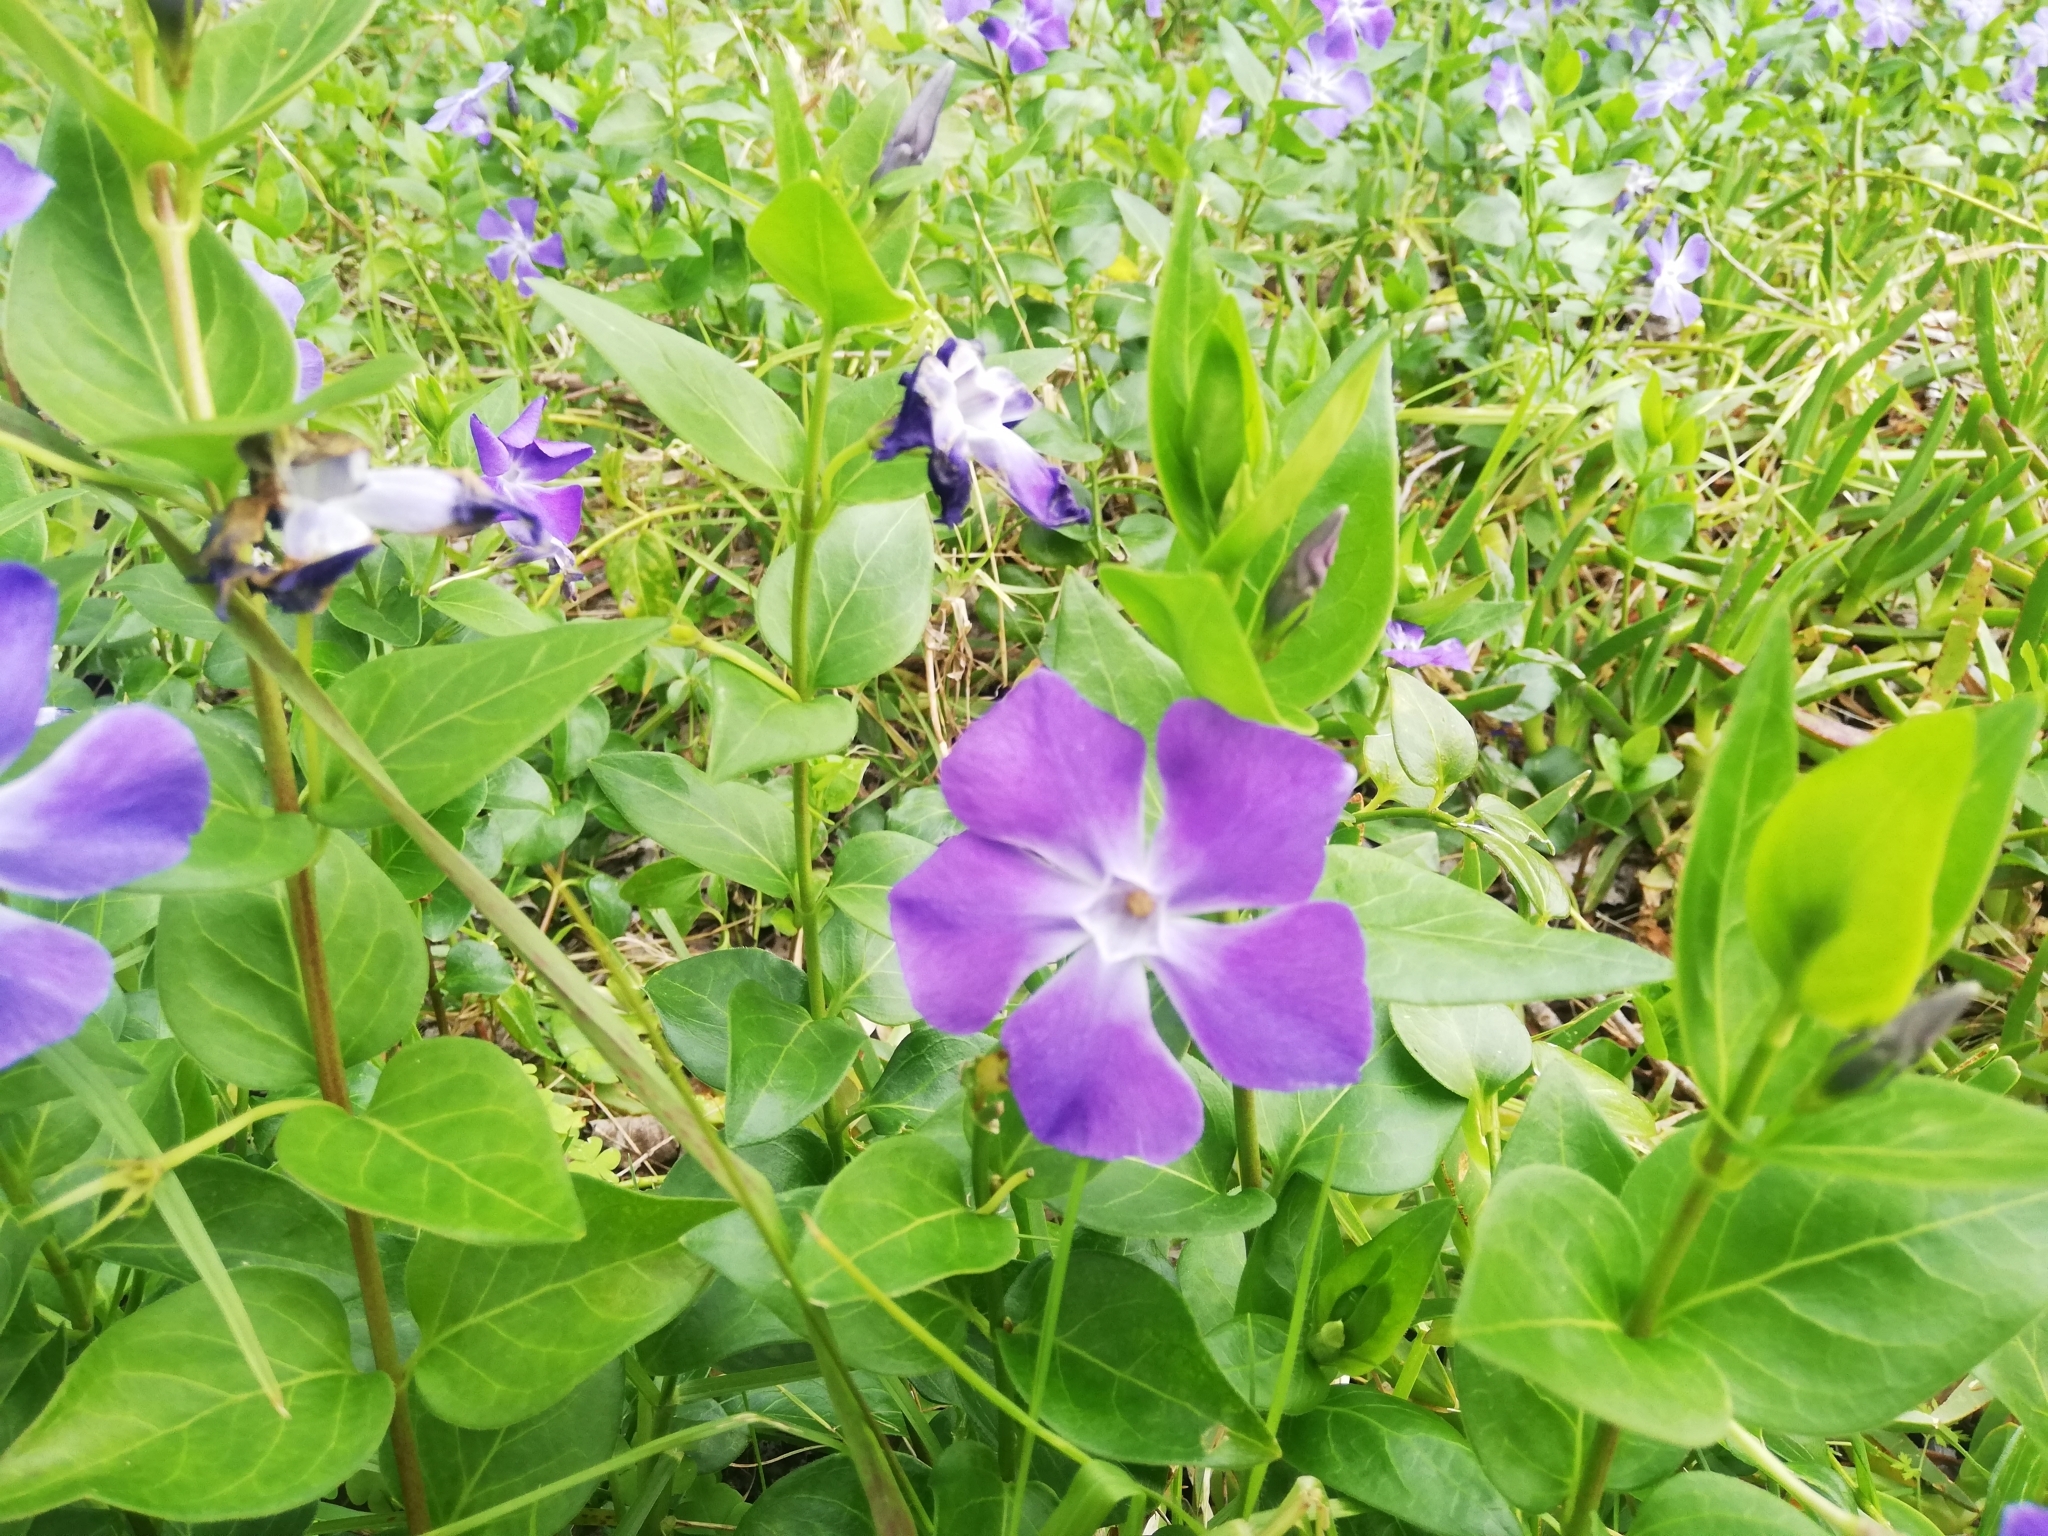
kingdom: Plantae
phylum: Tracheophyta
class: Magnoliopsida
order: Gentianales
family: Apocynaceae
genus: Vinca
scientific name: Vinca major
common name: Greater periwinkle
